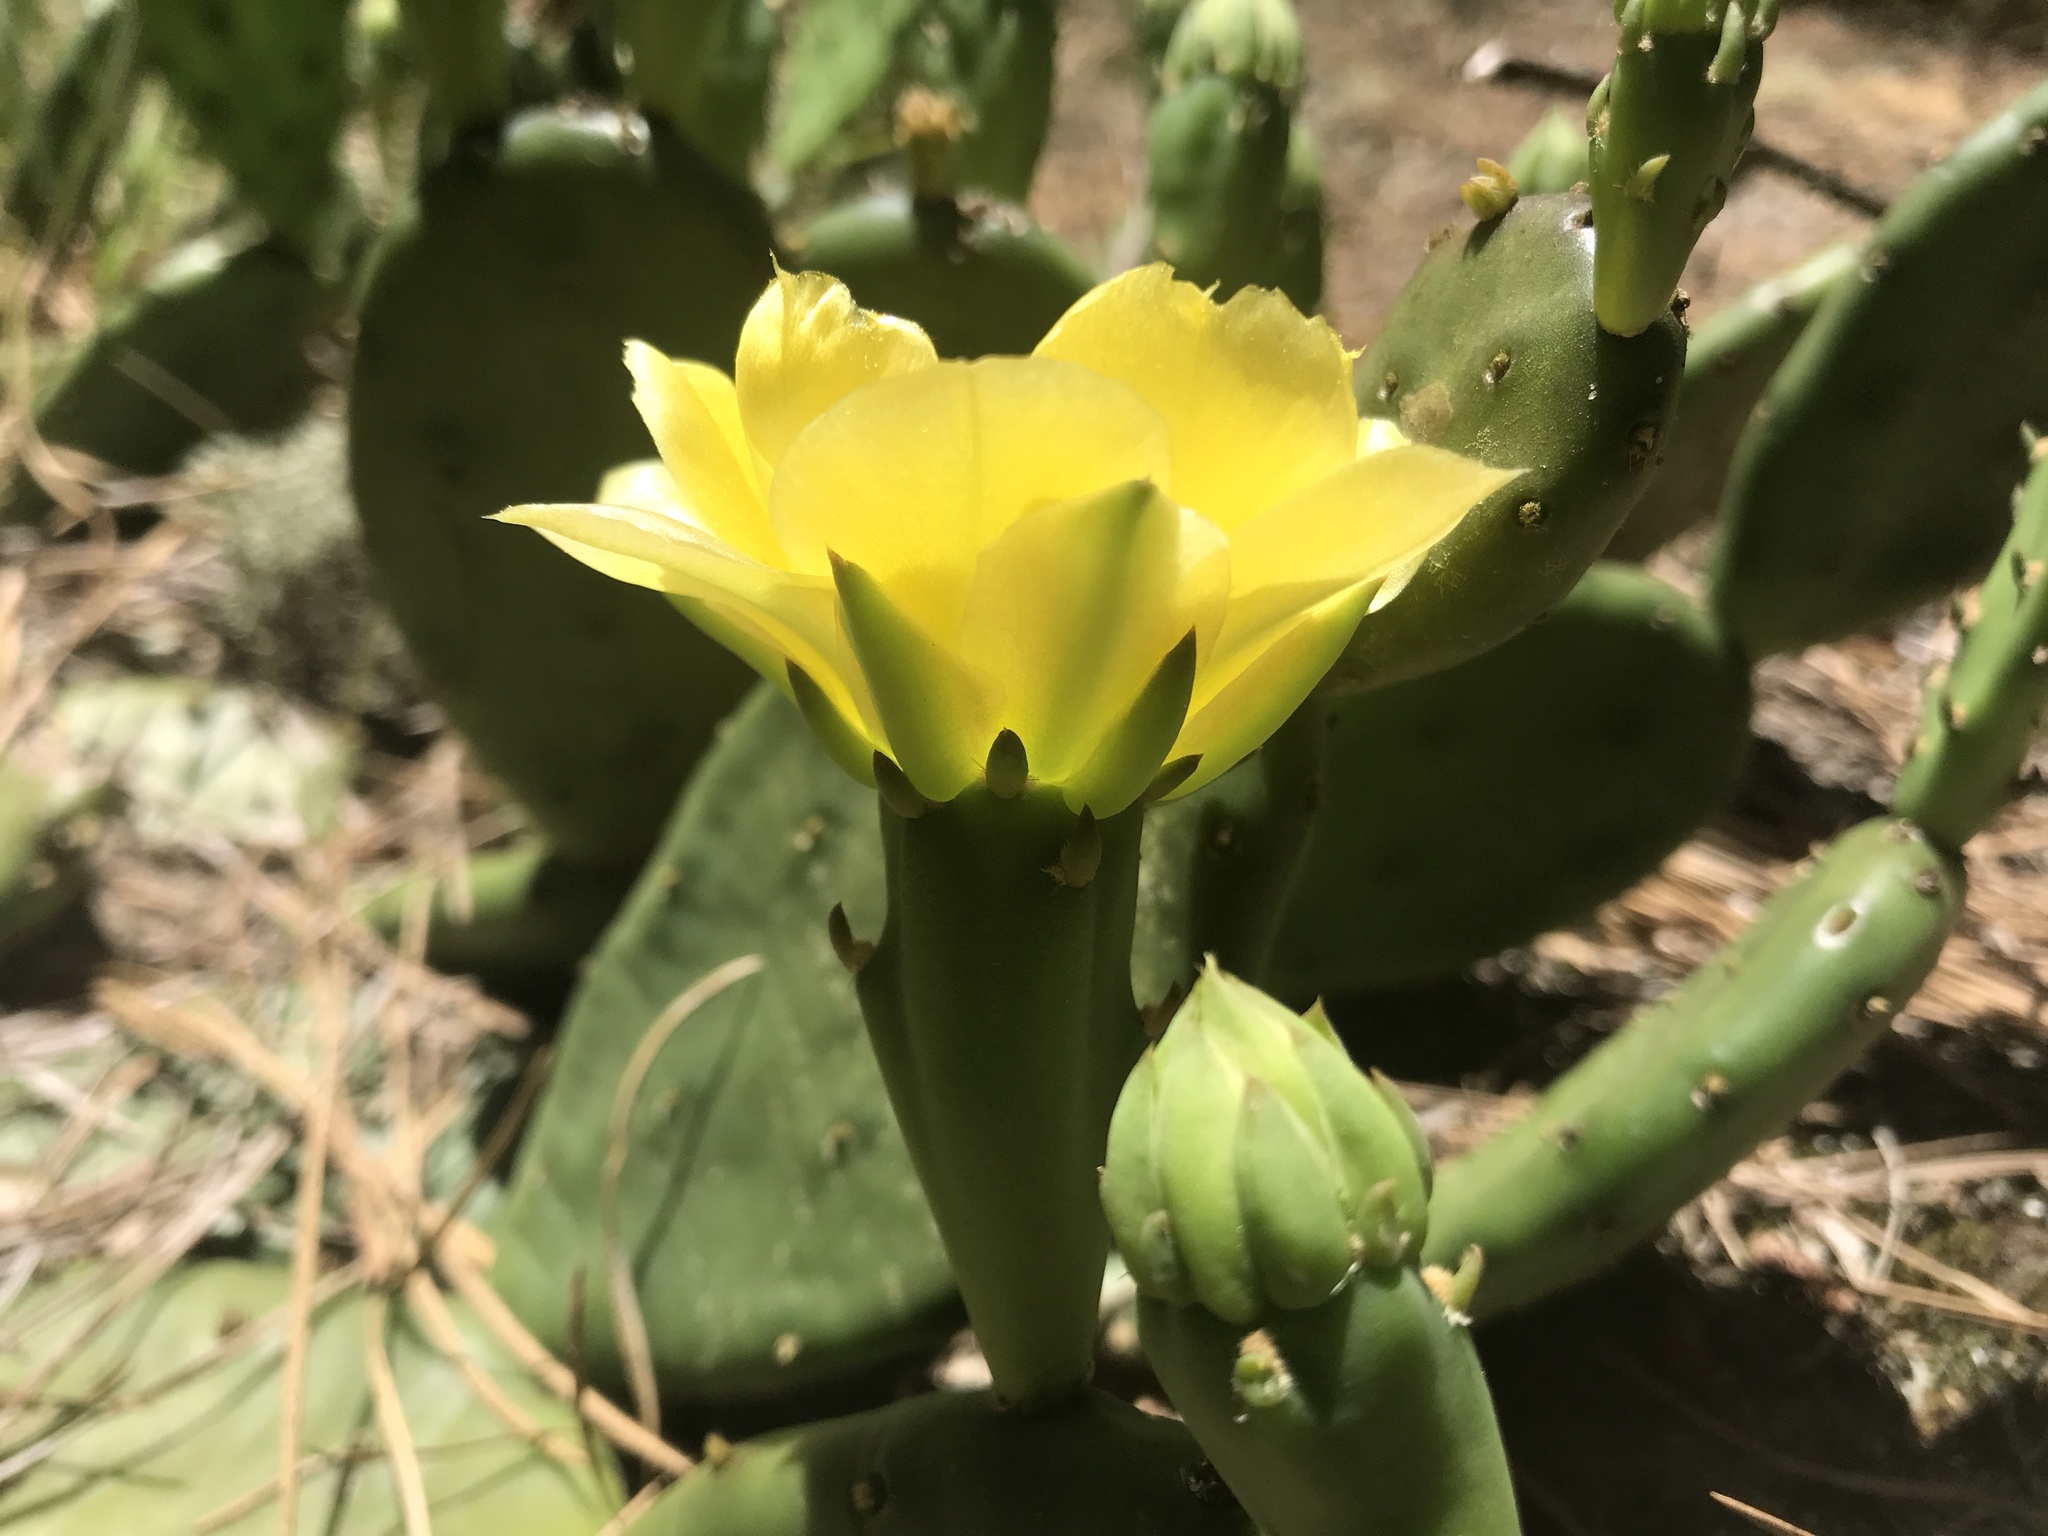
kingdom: Plantae
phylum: Tracheophyta
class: Magnoliopsida
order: Caryophyllales
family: Cactaceae
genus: Opuntia
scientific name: Opuntia humifusa
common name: Eastern prickly-pear
